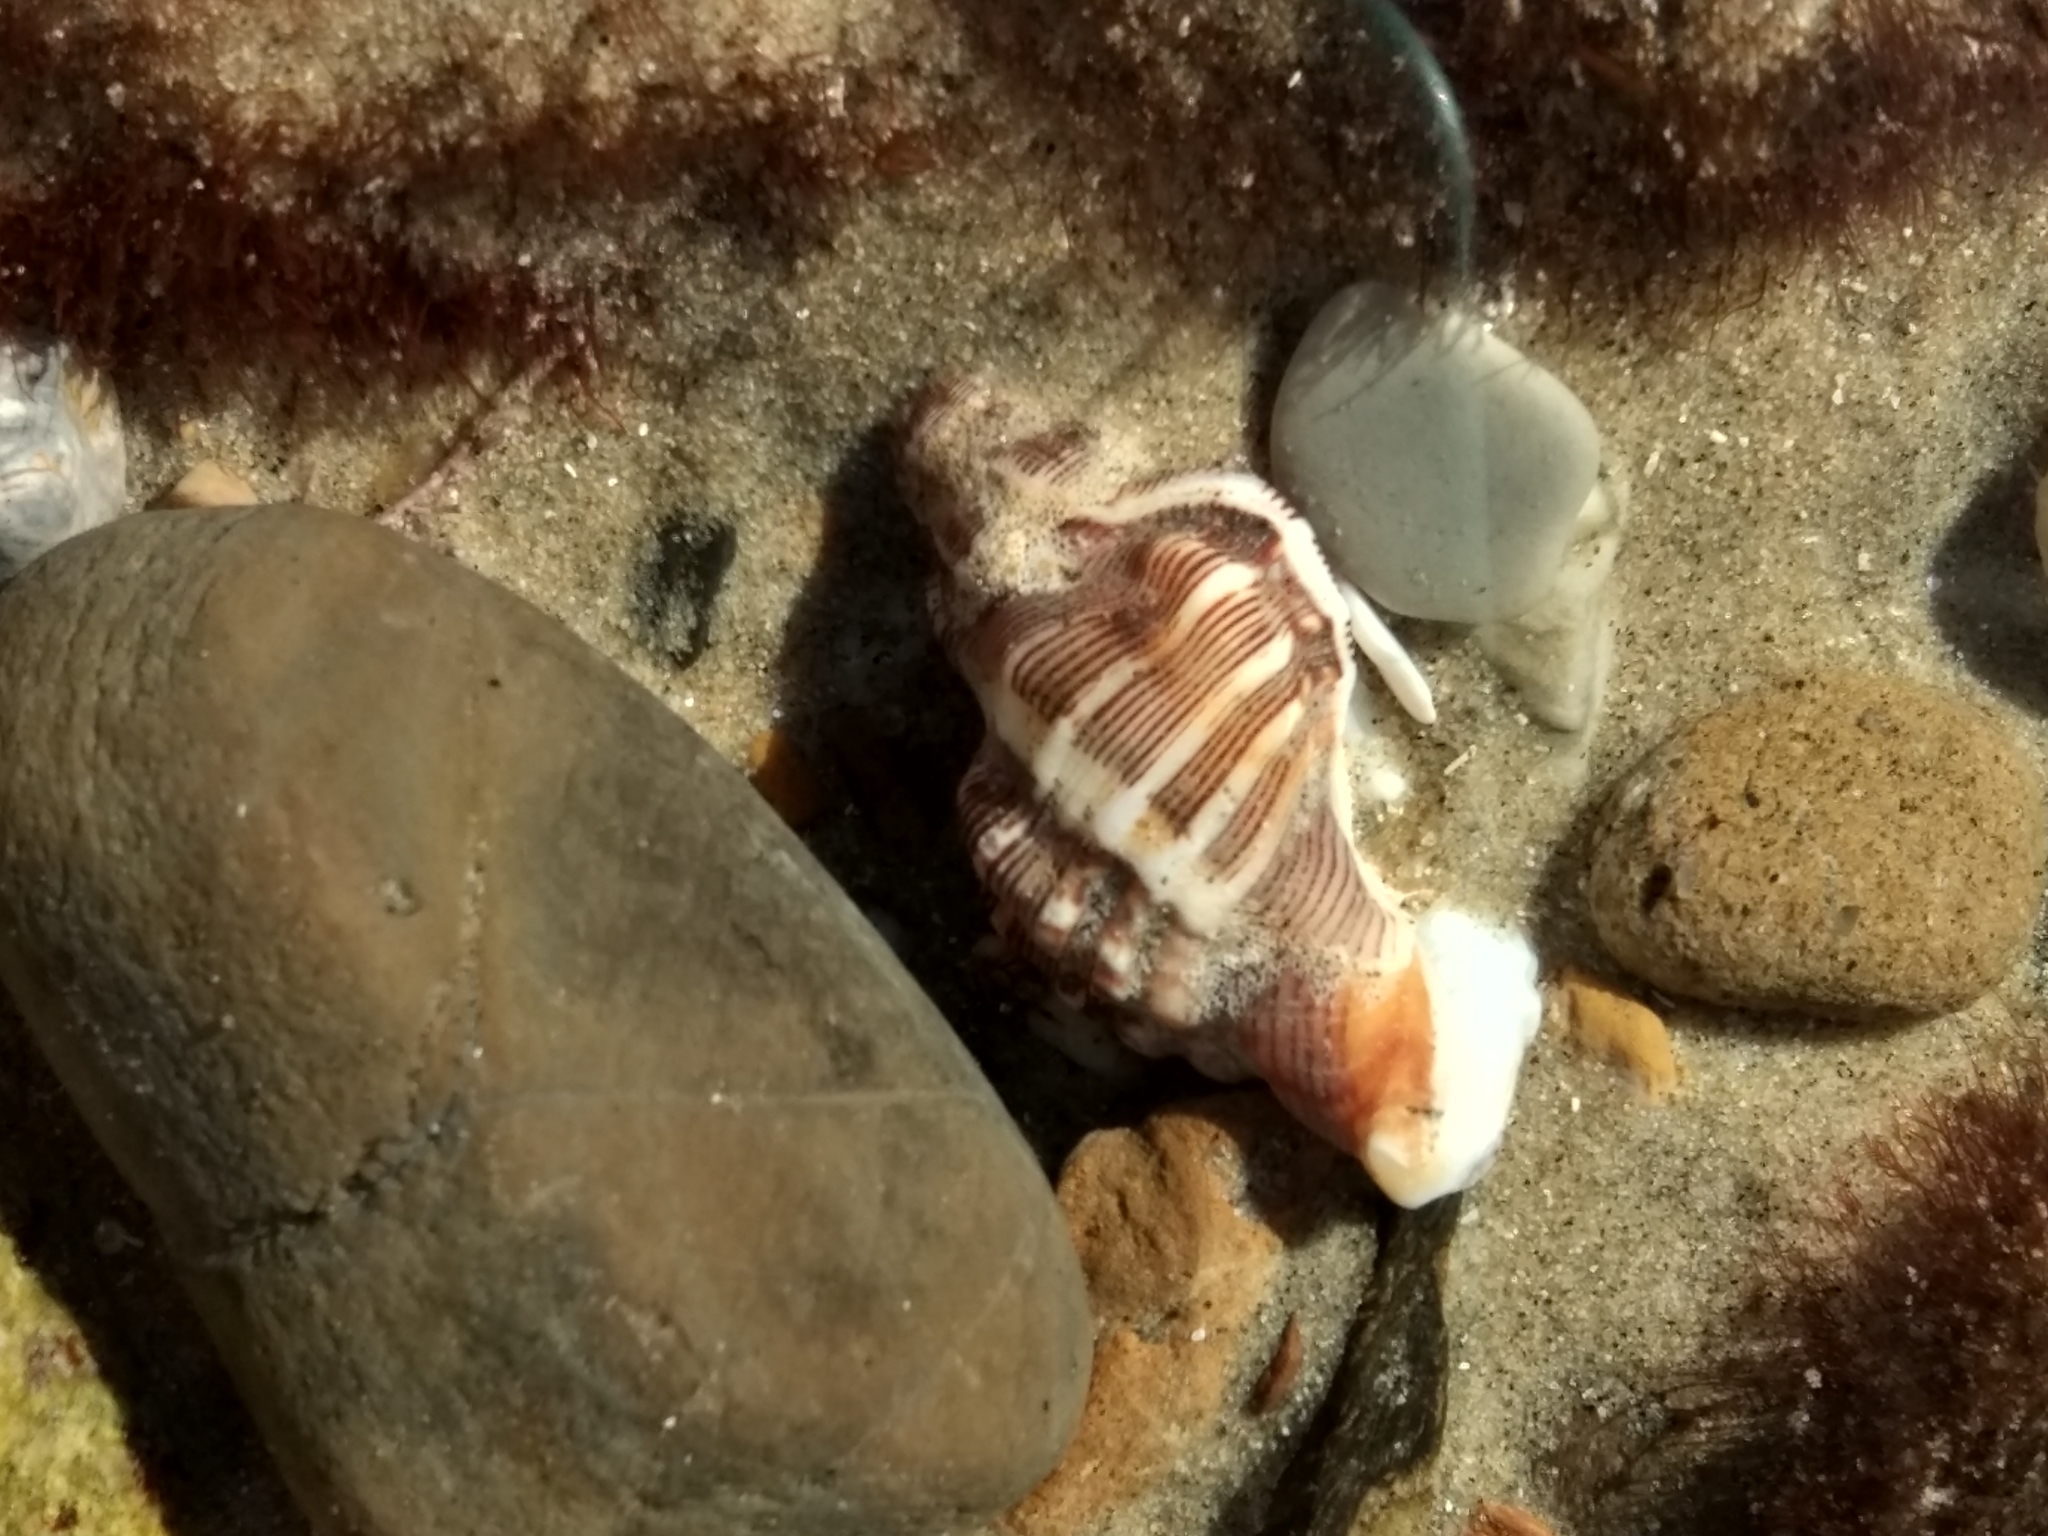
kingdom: Animalia
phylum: Mollusca
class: Gastropoda
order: Neogastropoda
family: Muricidae
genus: Roperia
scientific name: Roperia poulsoni
